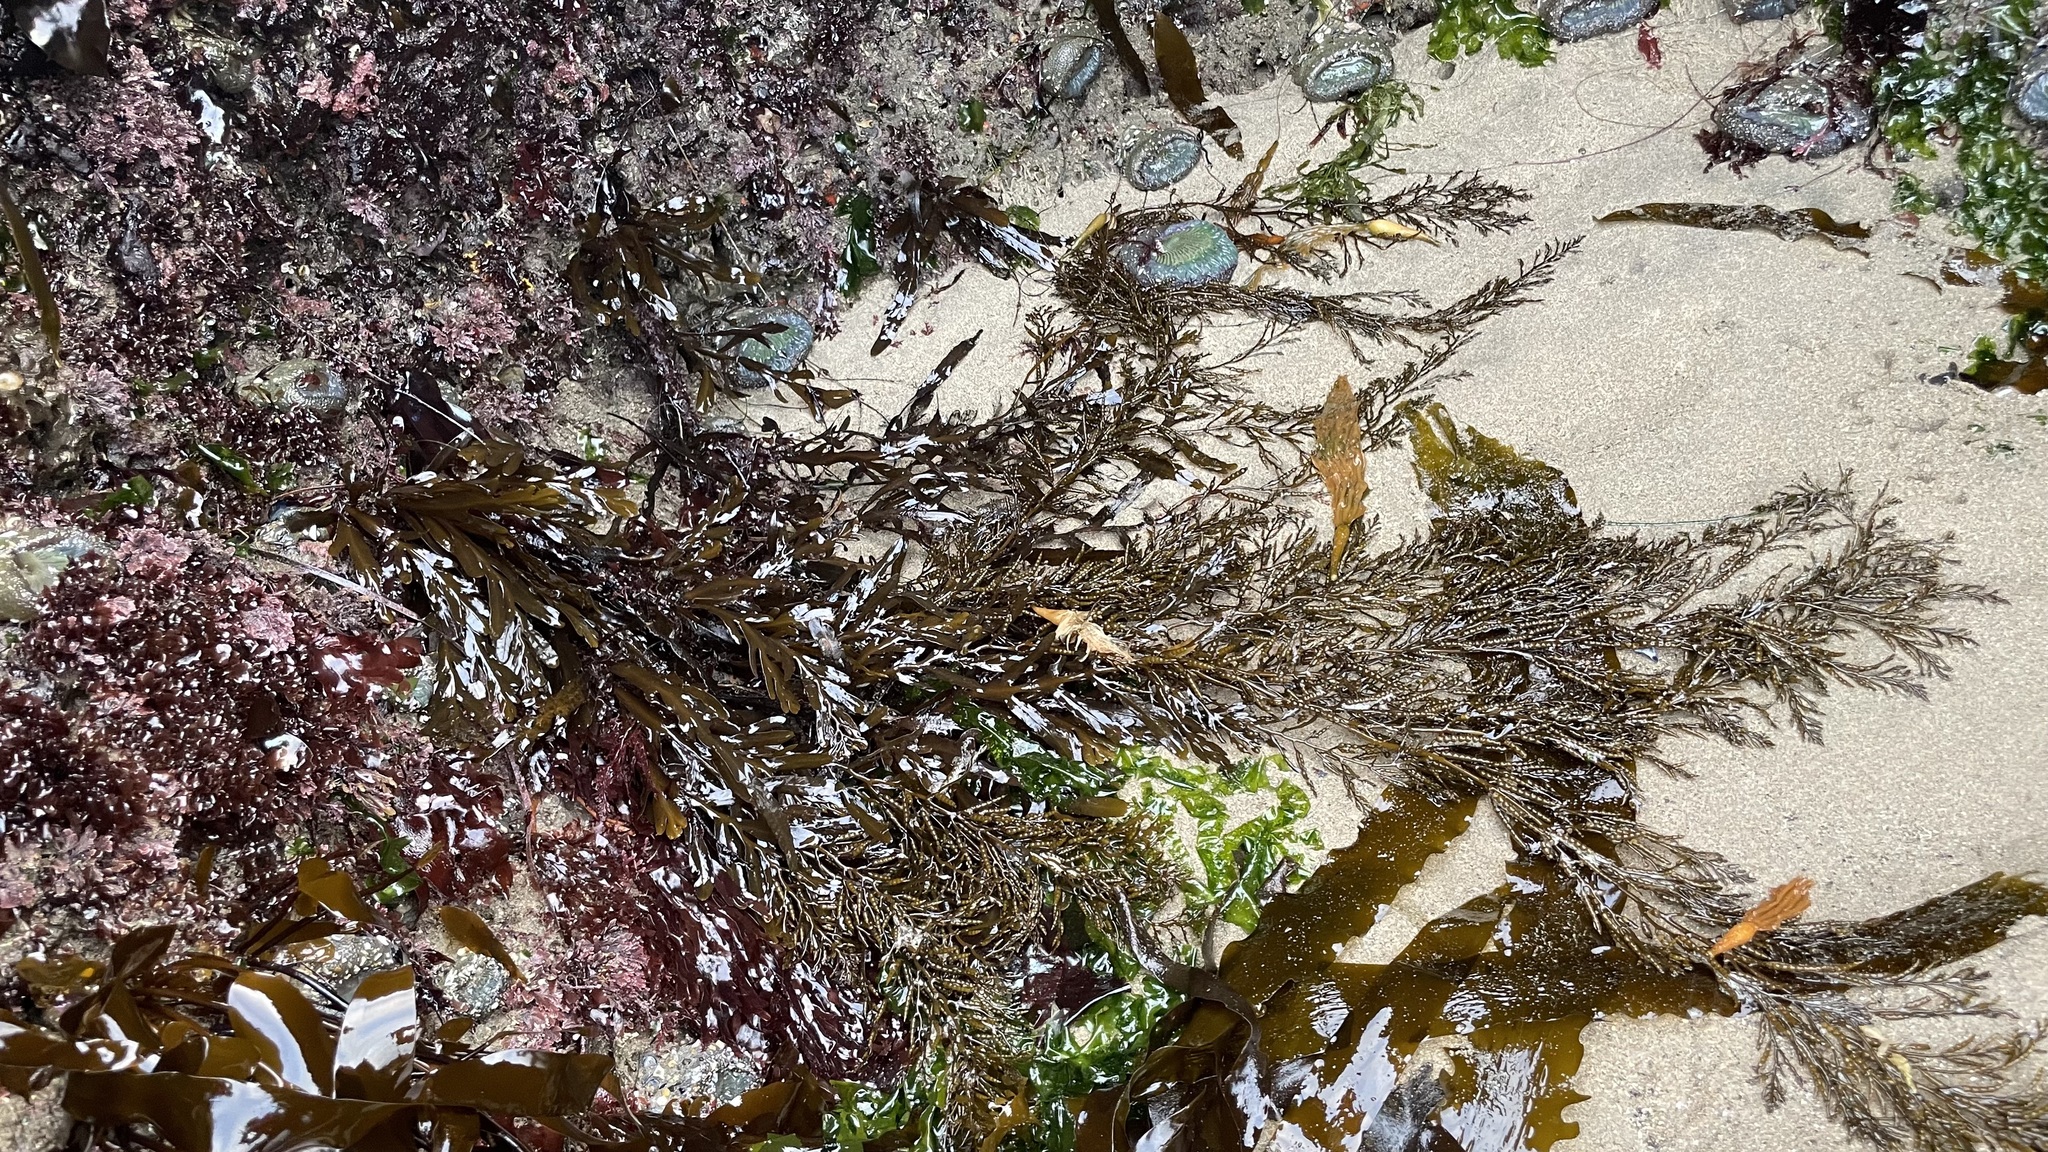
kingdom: Chromista
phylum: Ochrophyta
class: Phaeophyceae
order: Fucales
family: Sargassaceae
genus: Stephanocystis
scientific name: Stephanocystis
